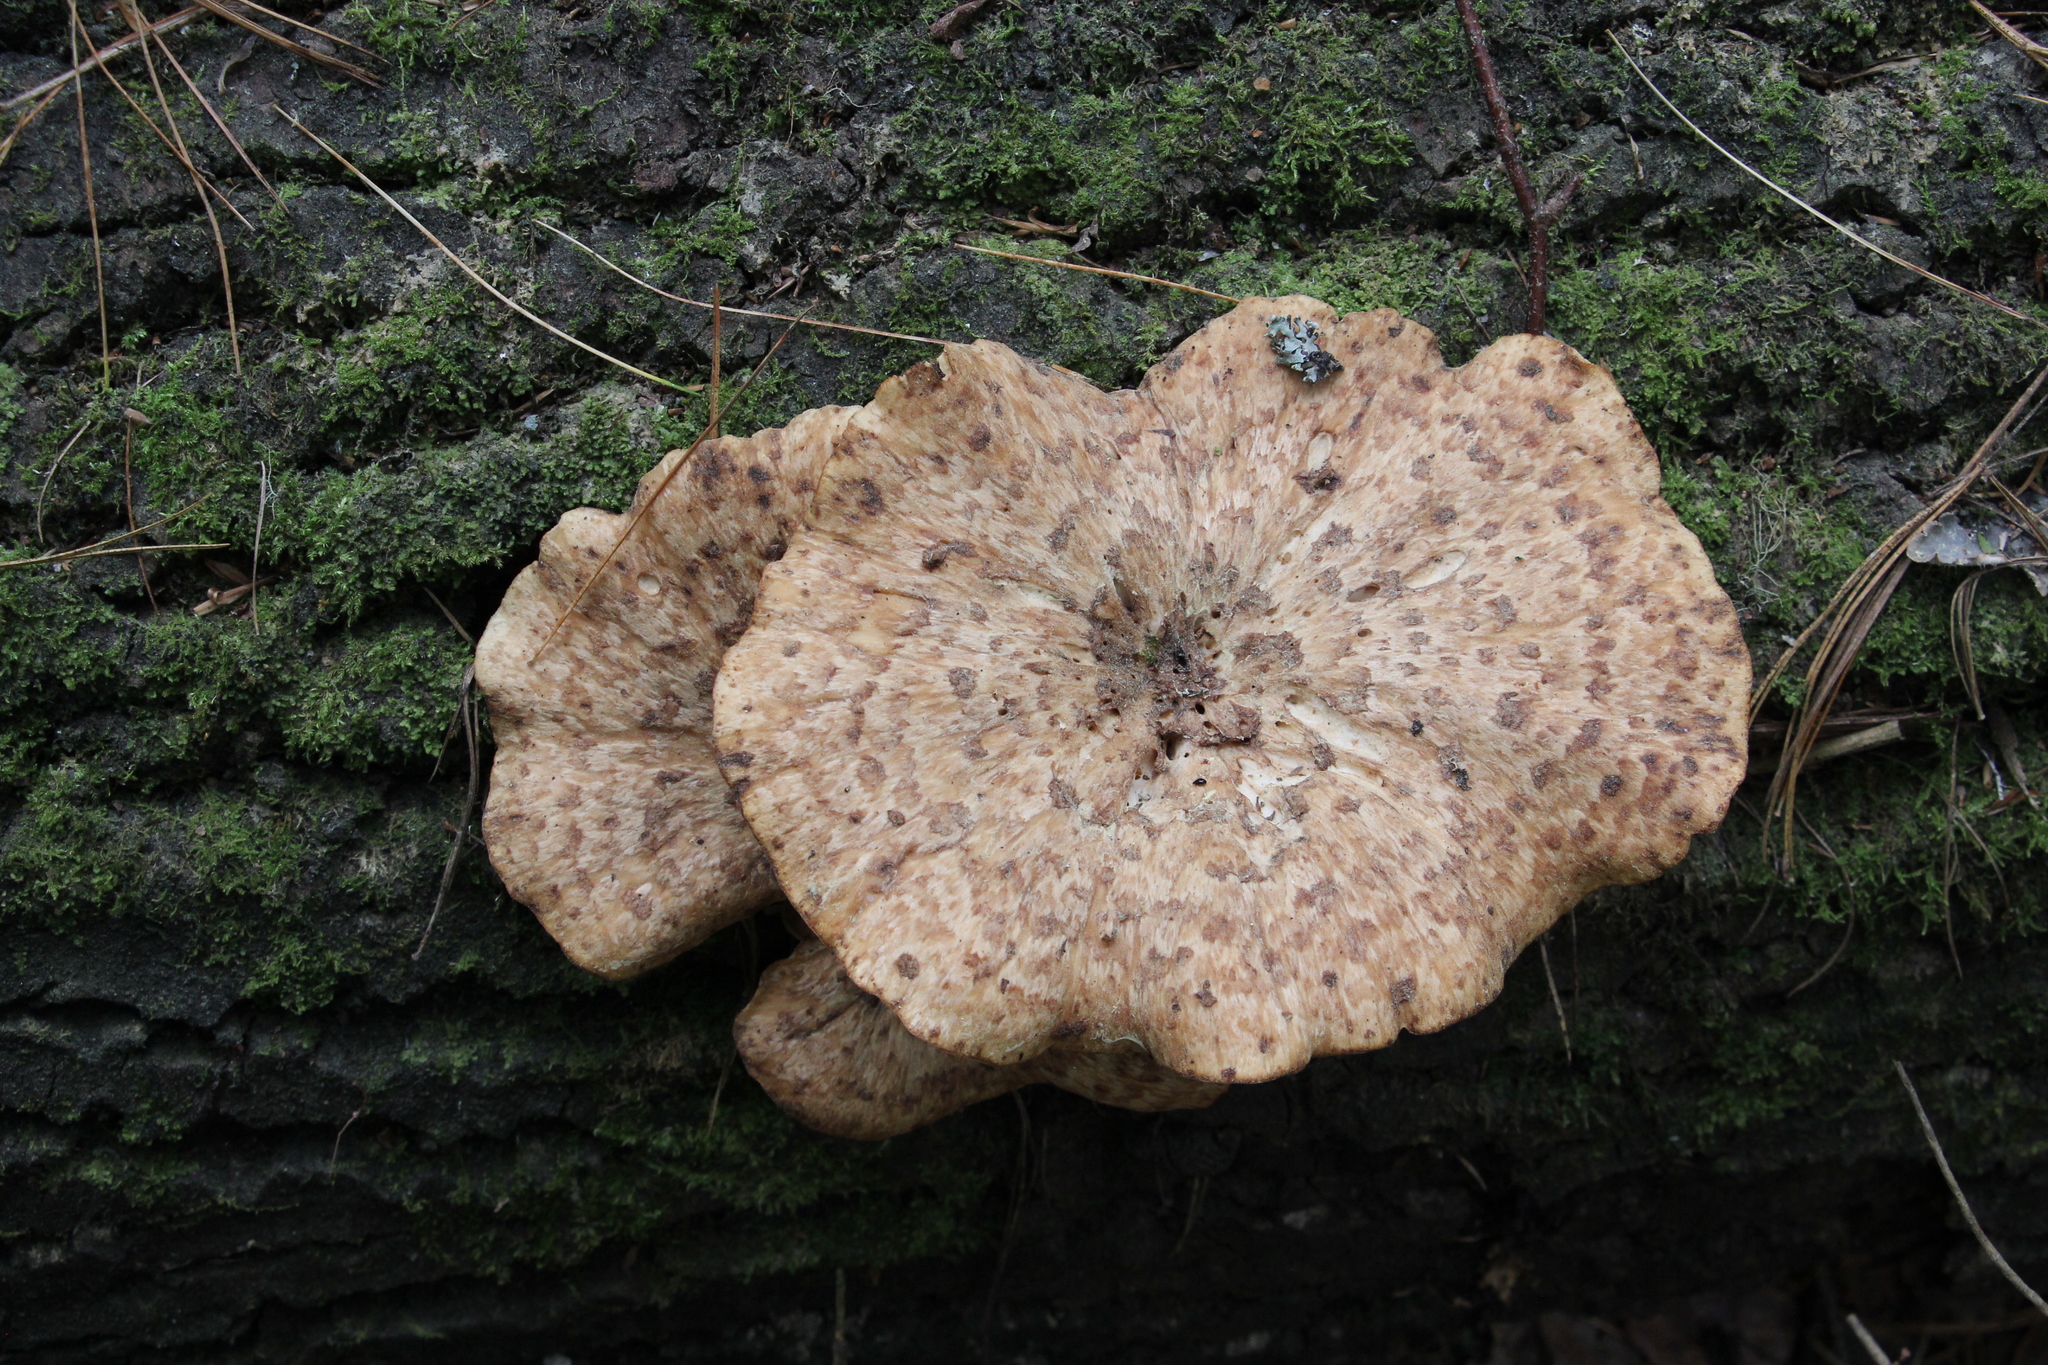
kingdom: Fungi
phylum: Basidiomycota
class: Agaricomycetes
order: Polyporales
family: Polyporaceae
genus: Cerioporus
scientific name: Cerioporus squamosus
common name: Dryad's saddle
